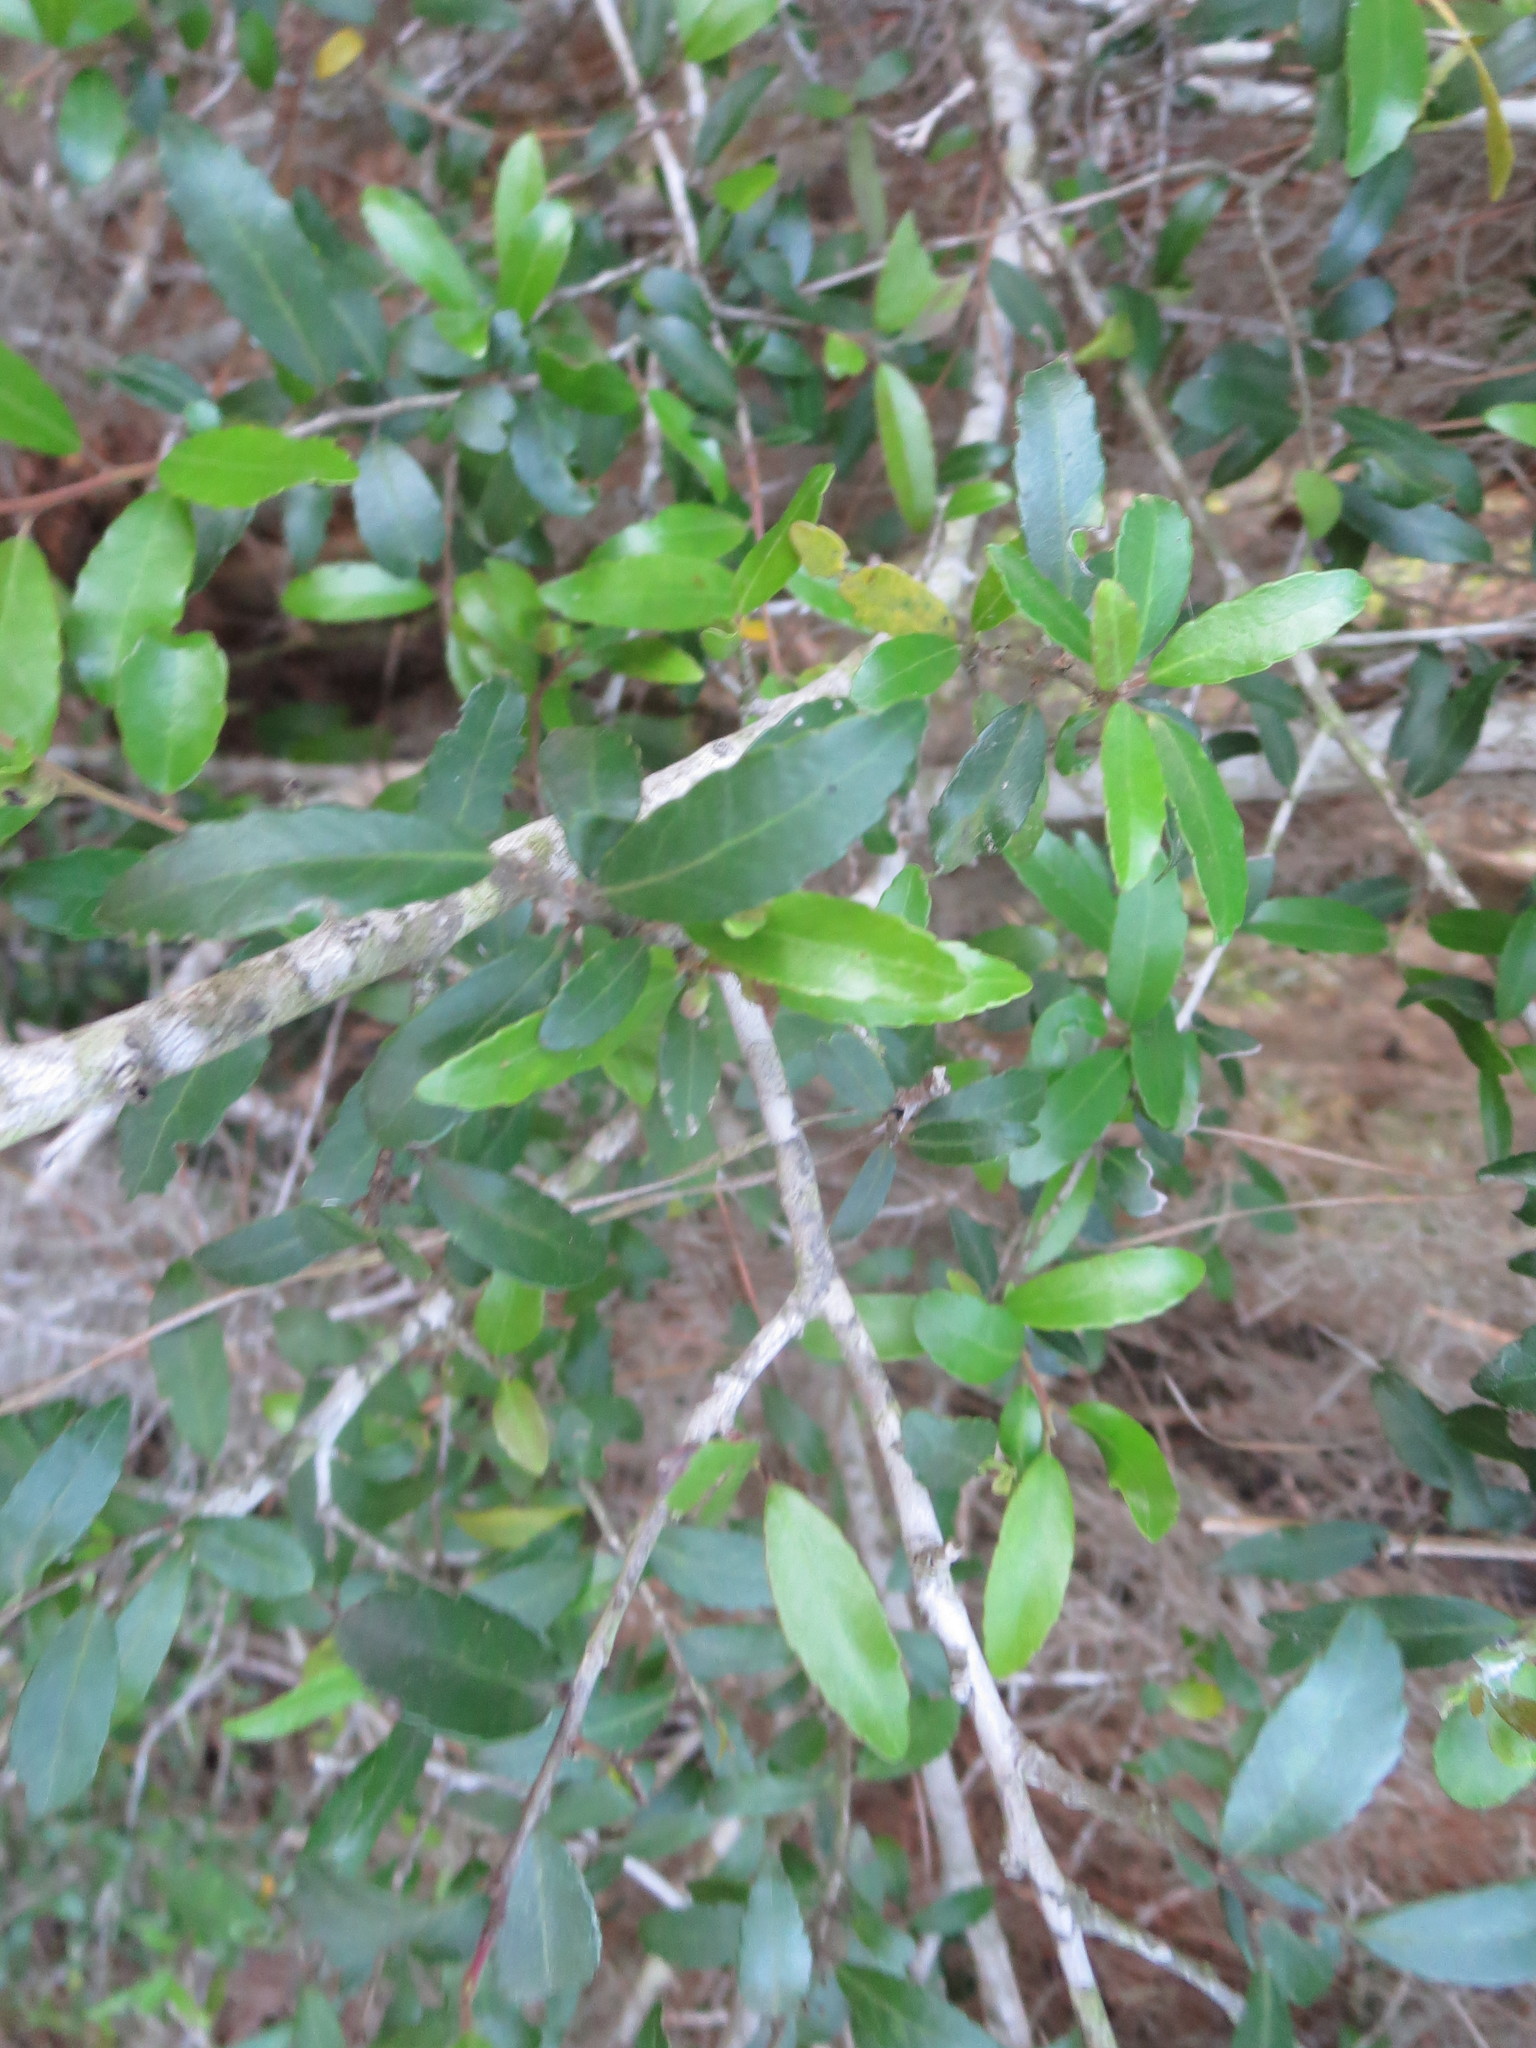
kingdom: Plantae
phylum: Tracheophyta
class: Magnoliopsida
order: Aquifoliales
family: Aquifoliaceae
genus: Ilex
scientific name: Ilex vomitoria
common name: Yaupon holly
